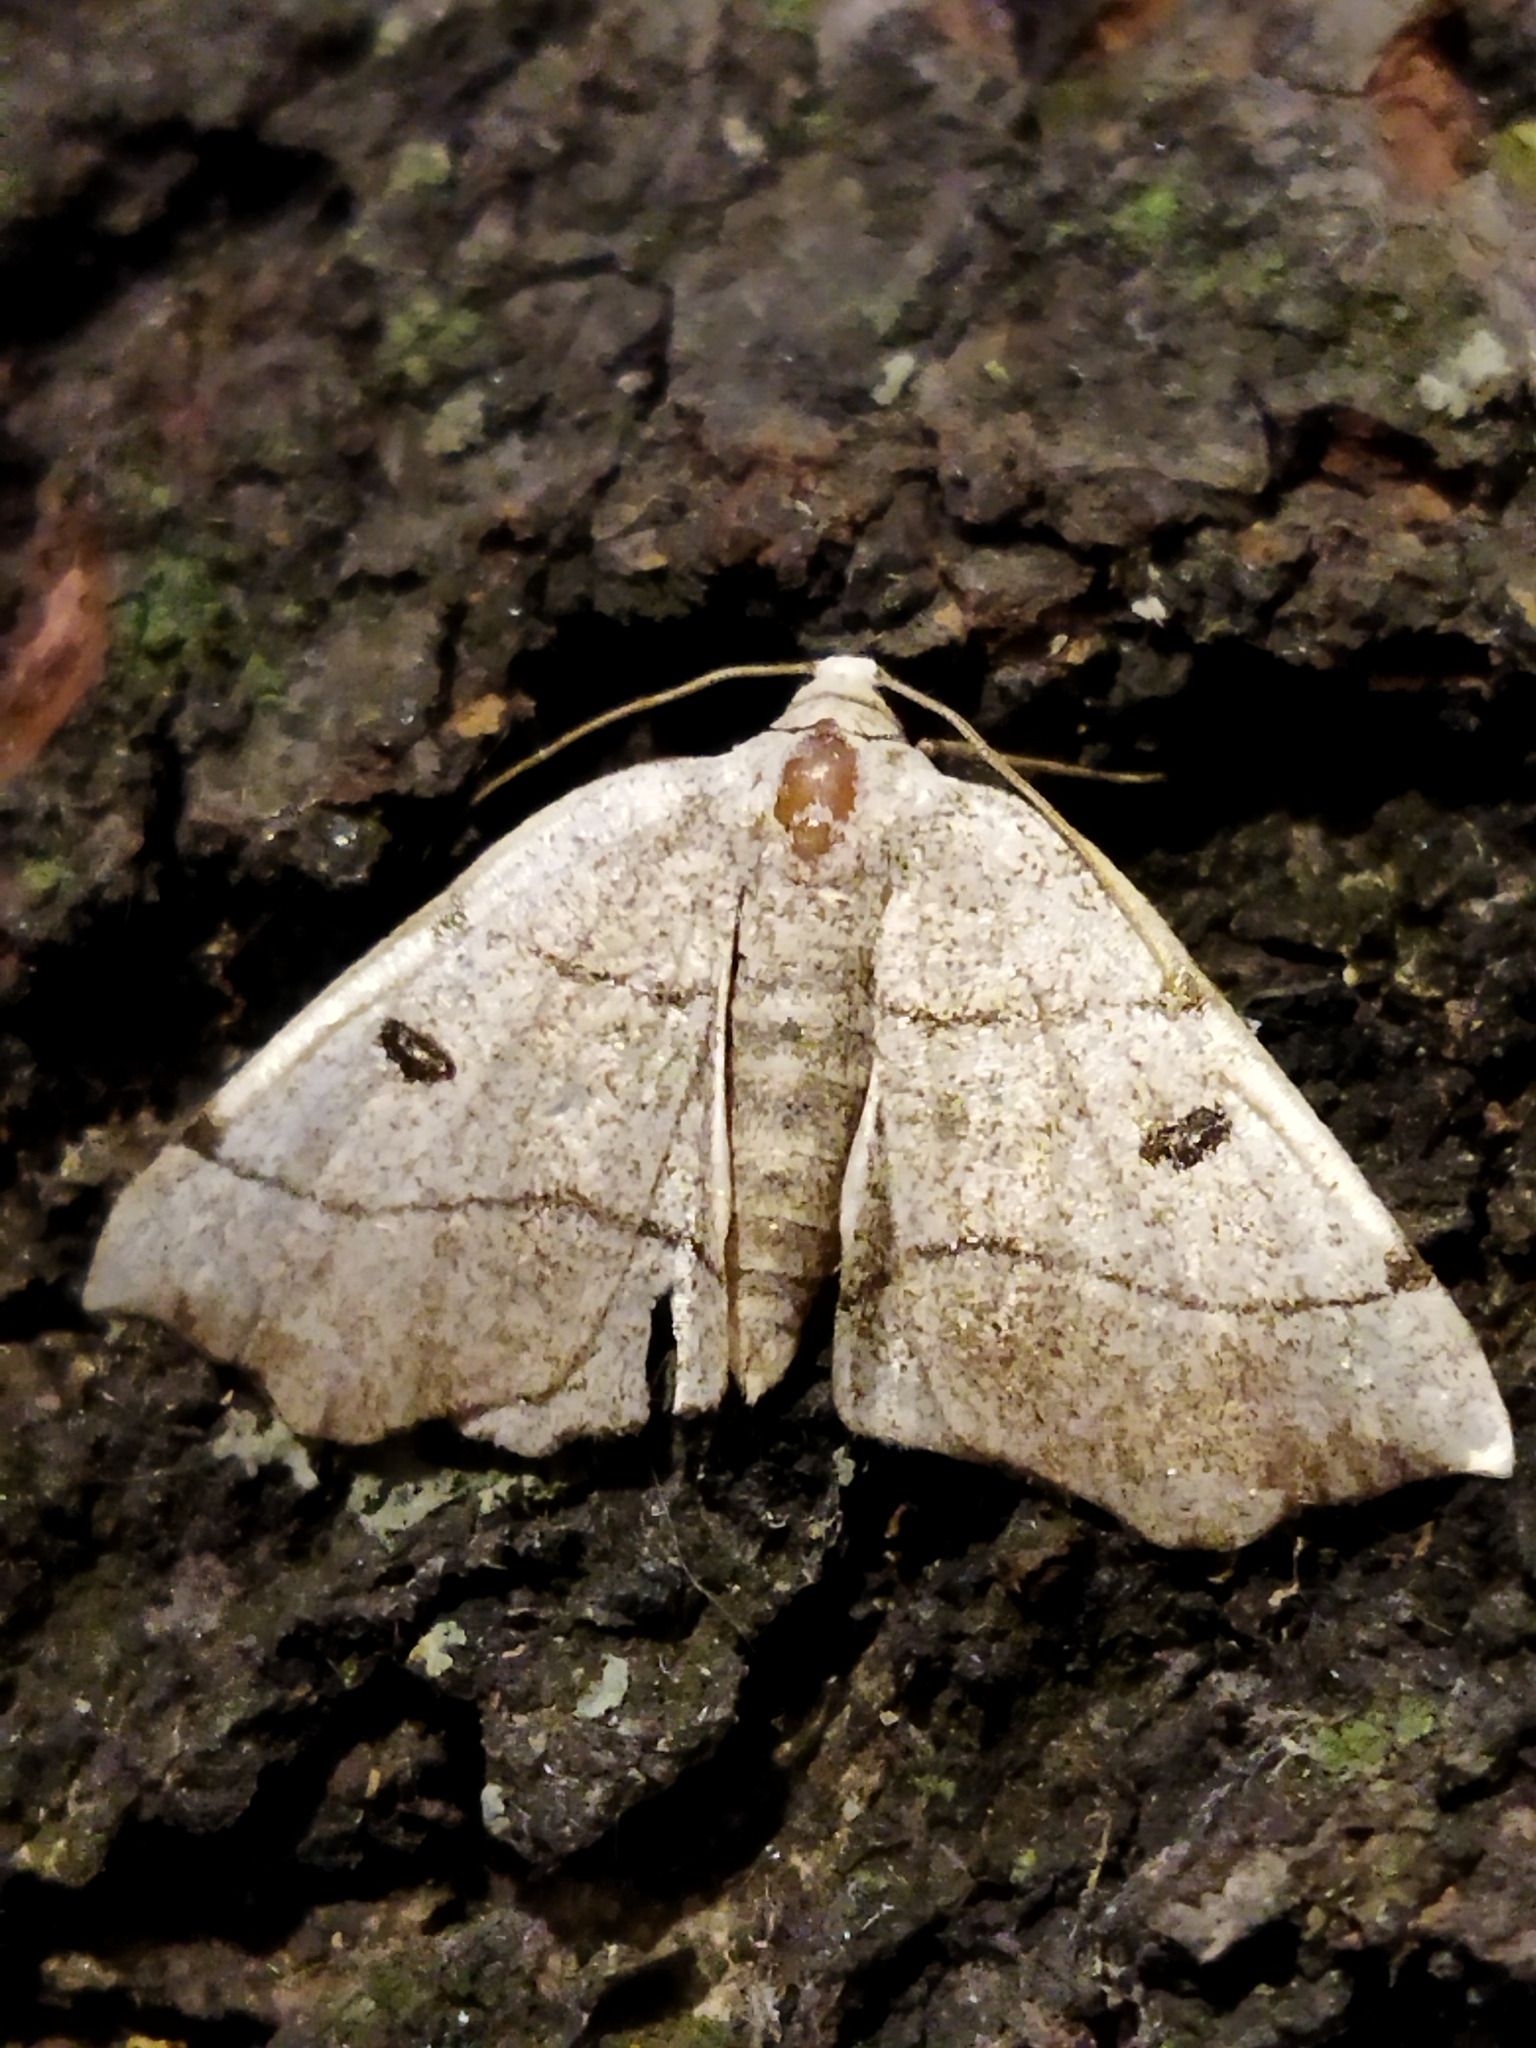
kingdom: Animalia
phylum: Arthropoda
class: Insecta
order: Lepidoptera
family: Geometridae
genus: Eilicrinia
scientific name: Eilicrinia trinotata
